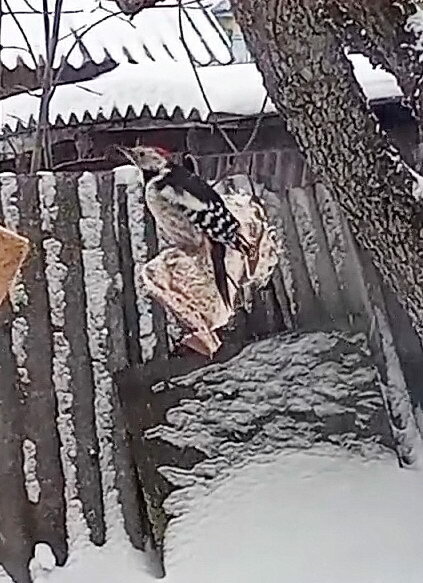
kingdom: Animalia
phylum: Chordata
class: Aves
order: Piciformes
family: Picidae
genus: Dendrocoptes
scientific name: Dendrocoptes medius
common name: Middle spotted woodpecker
